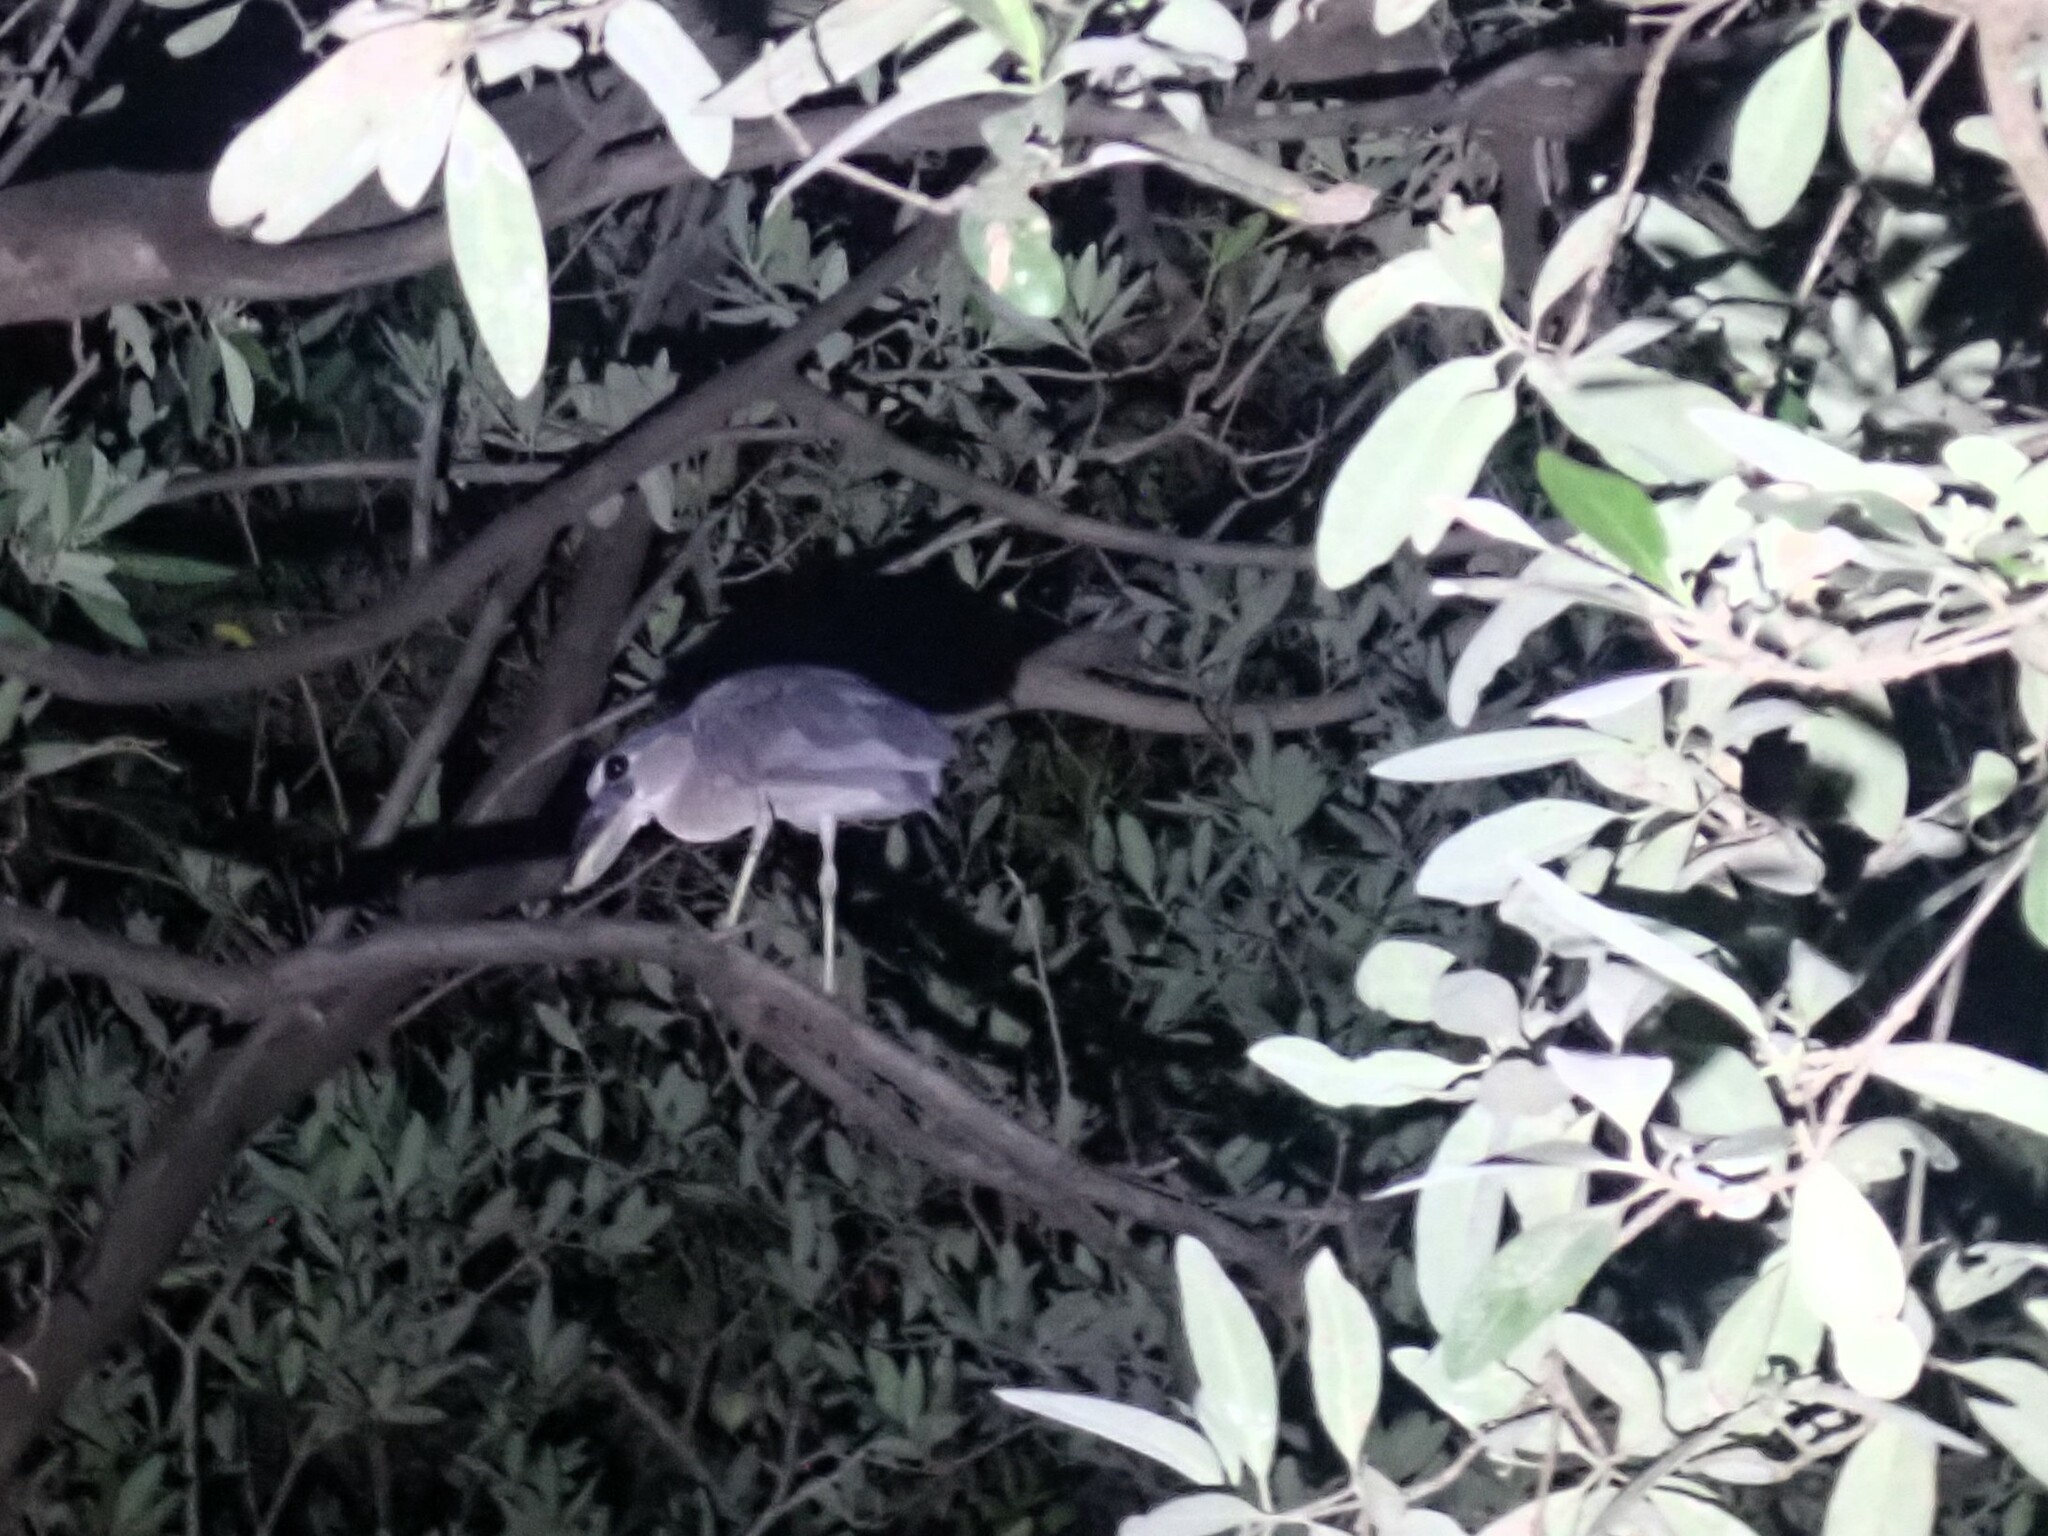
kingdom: Animalia
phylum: Chordata
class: Aves
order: Pelecaniformes
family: Ardeidae
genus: Cochlearius
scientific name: Cochlearius cochlearius
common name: Boat-billed heron
